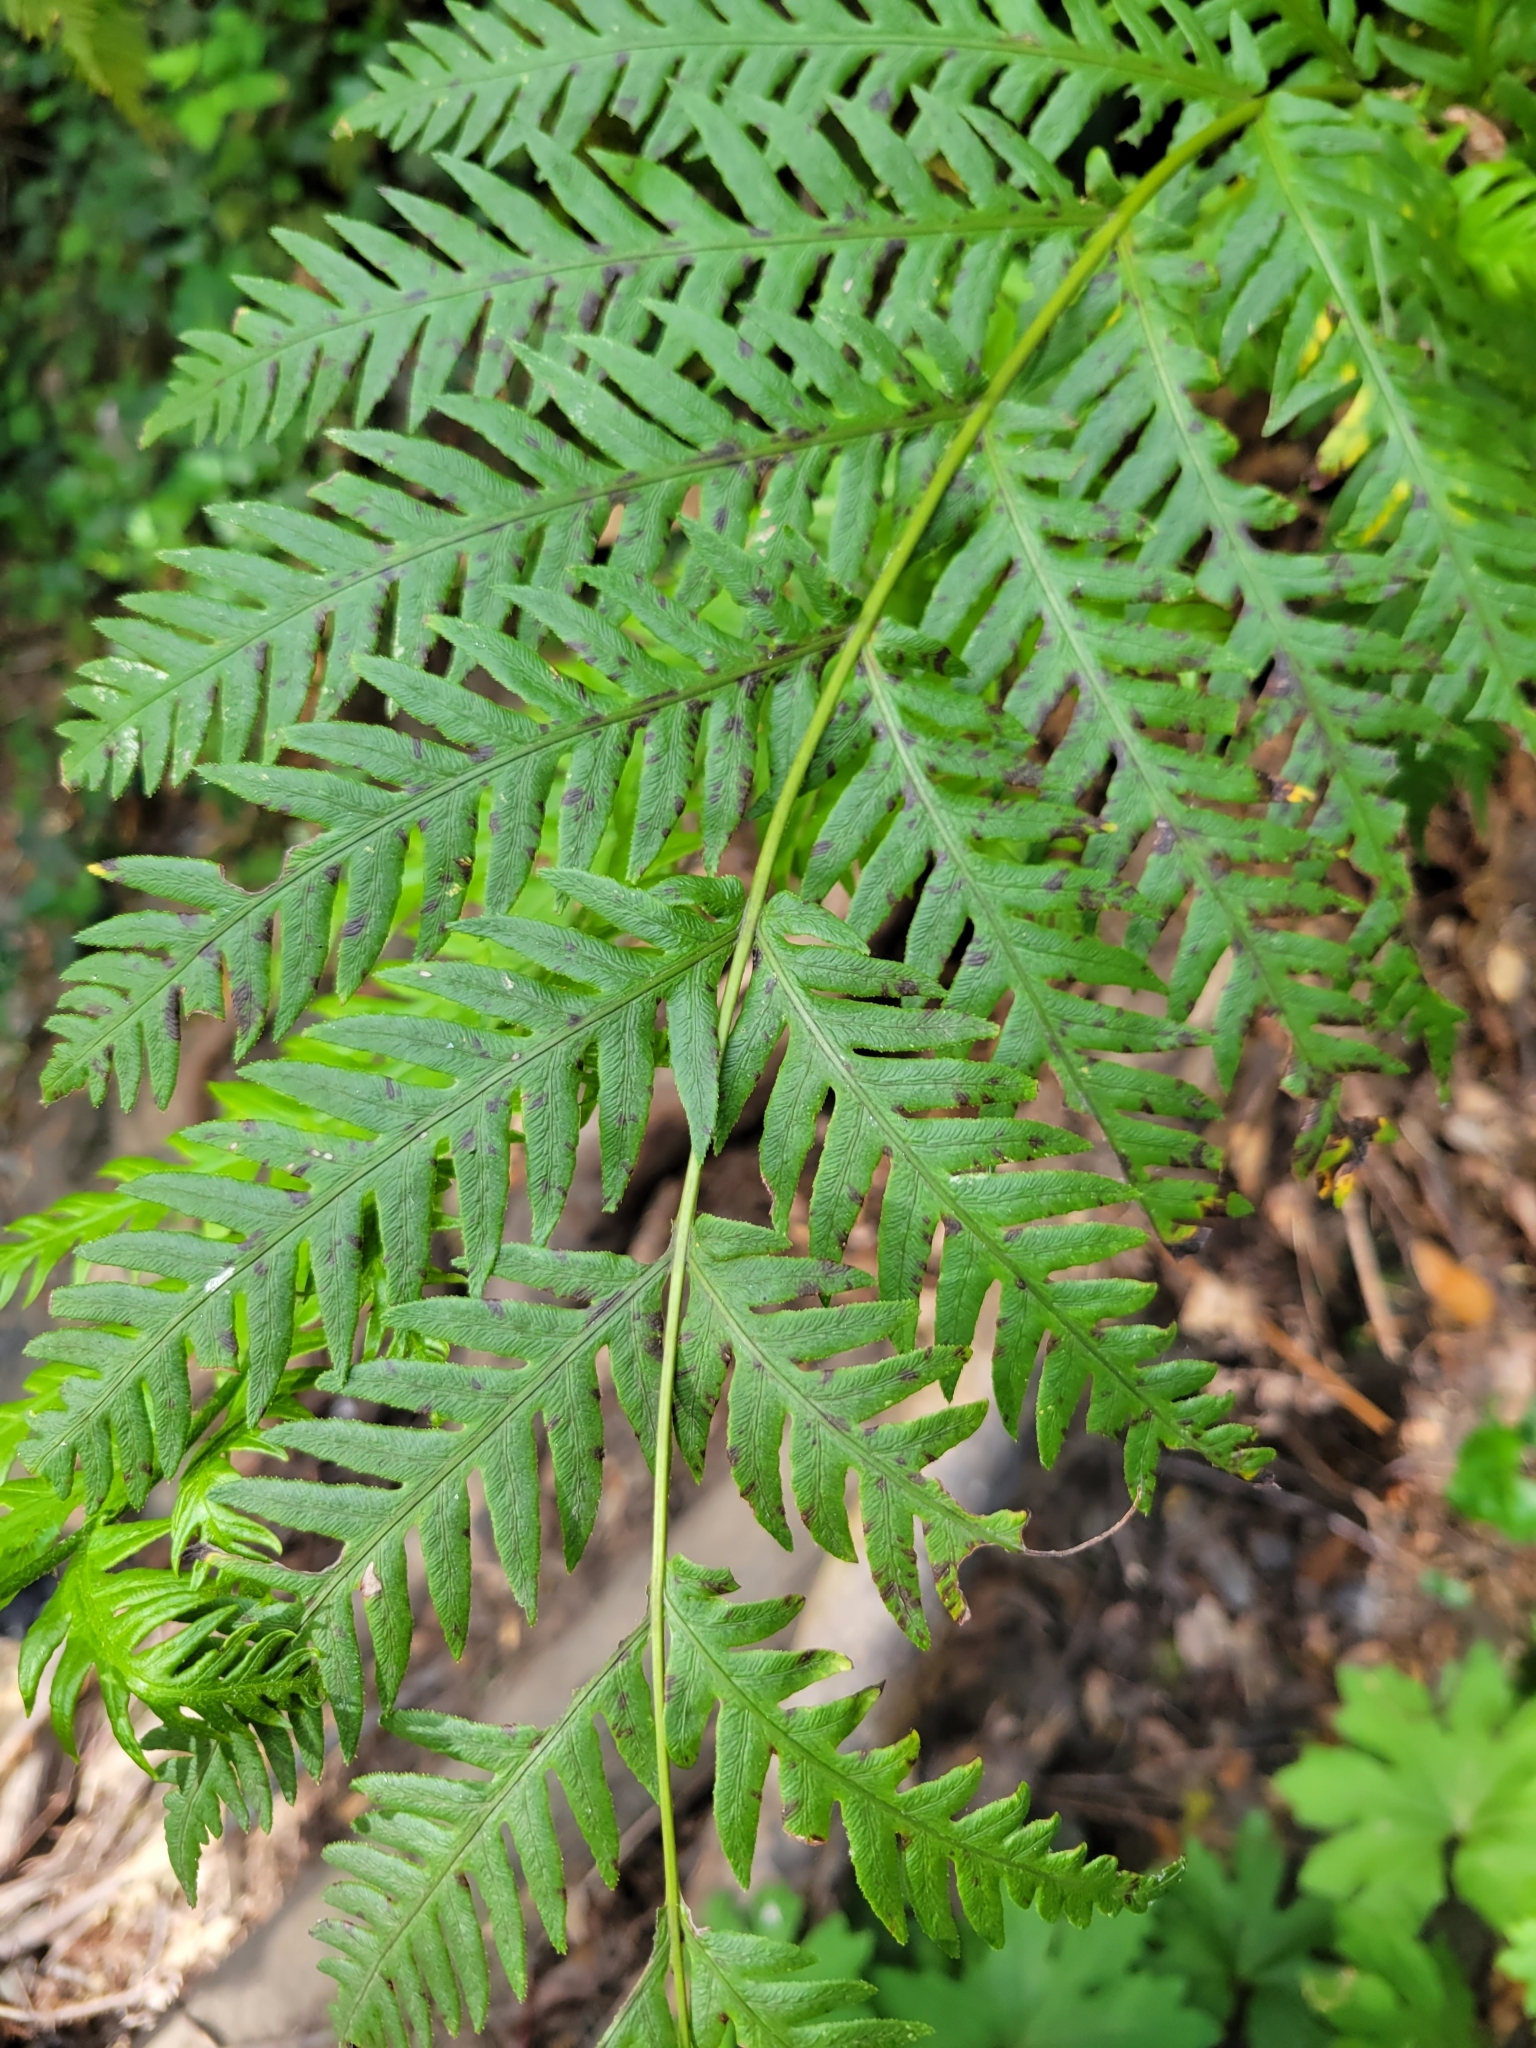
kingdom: Plantae
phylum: Tracheophyta
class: Polypodiopsida
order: Polypodiales
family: Blechnaceae
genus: Woodwardia
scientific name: Woodwardia fimbriata
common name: Giant chain fern
